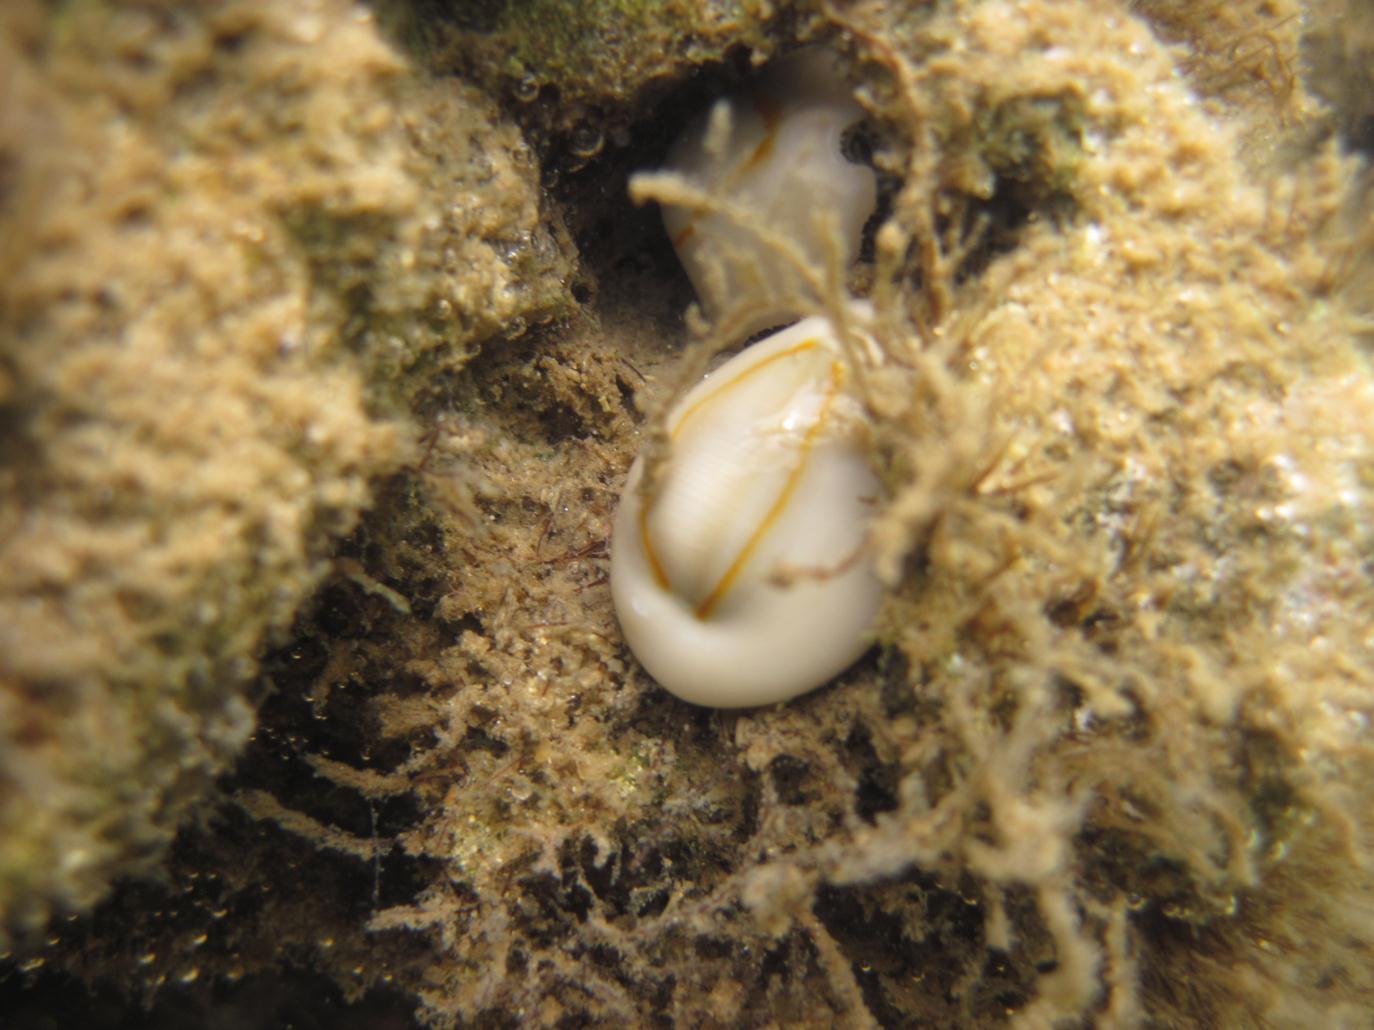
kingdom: Animalia
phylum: Mollusca
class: Gastropoda
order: Littorinimorpha
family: Cypraeidae
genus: Monetaria
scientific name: Monetaria annulus
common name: Ring cowrie
